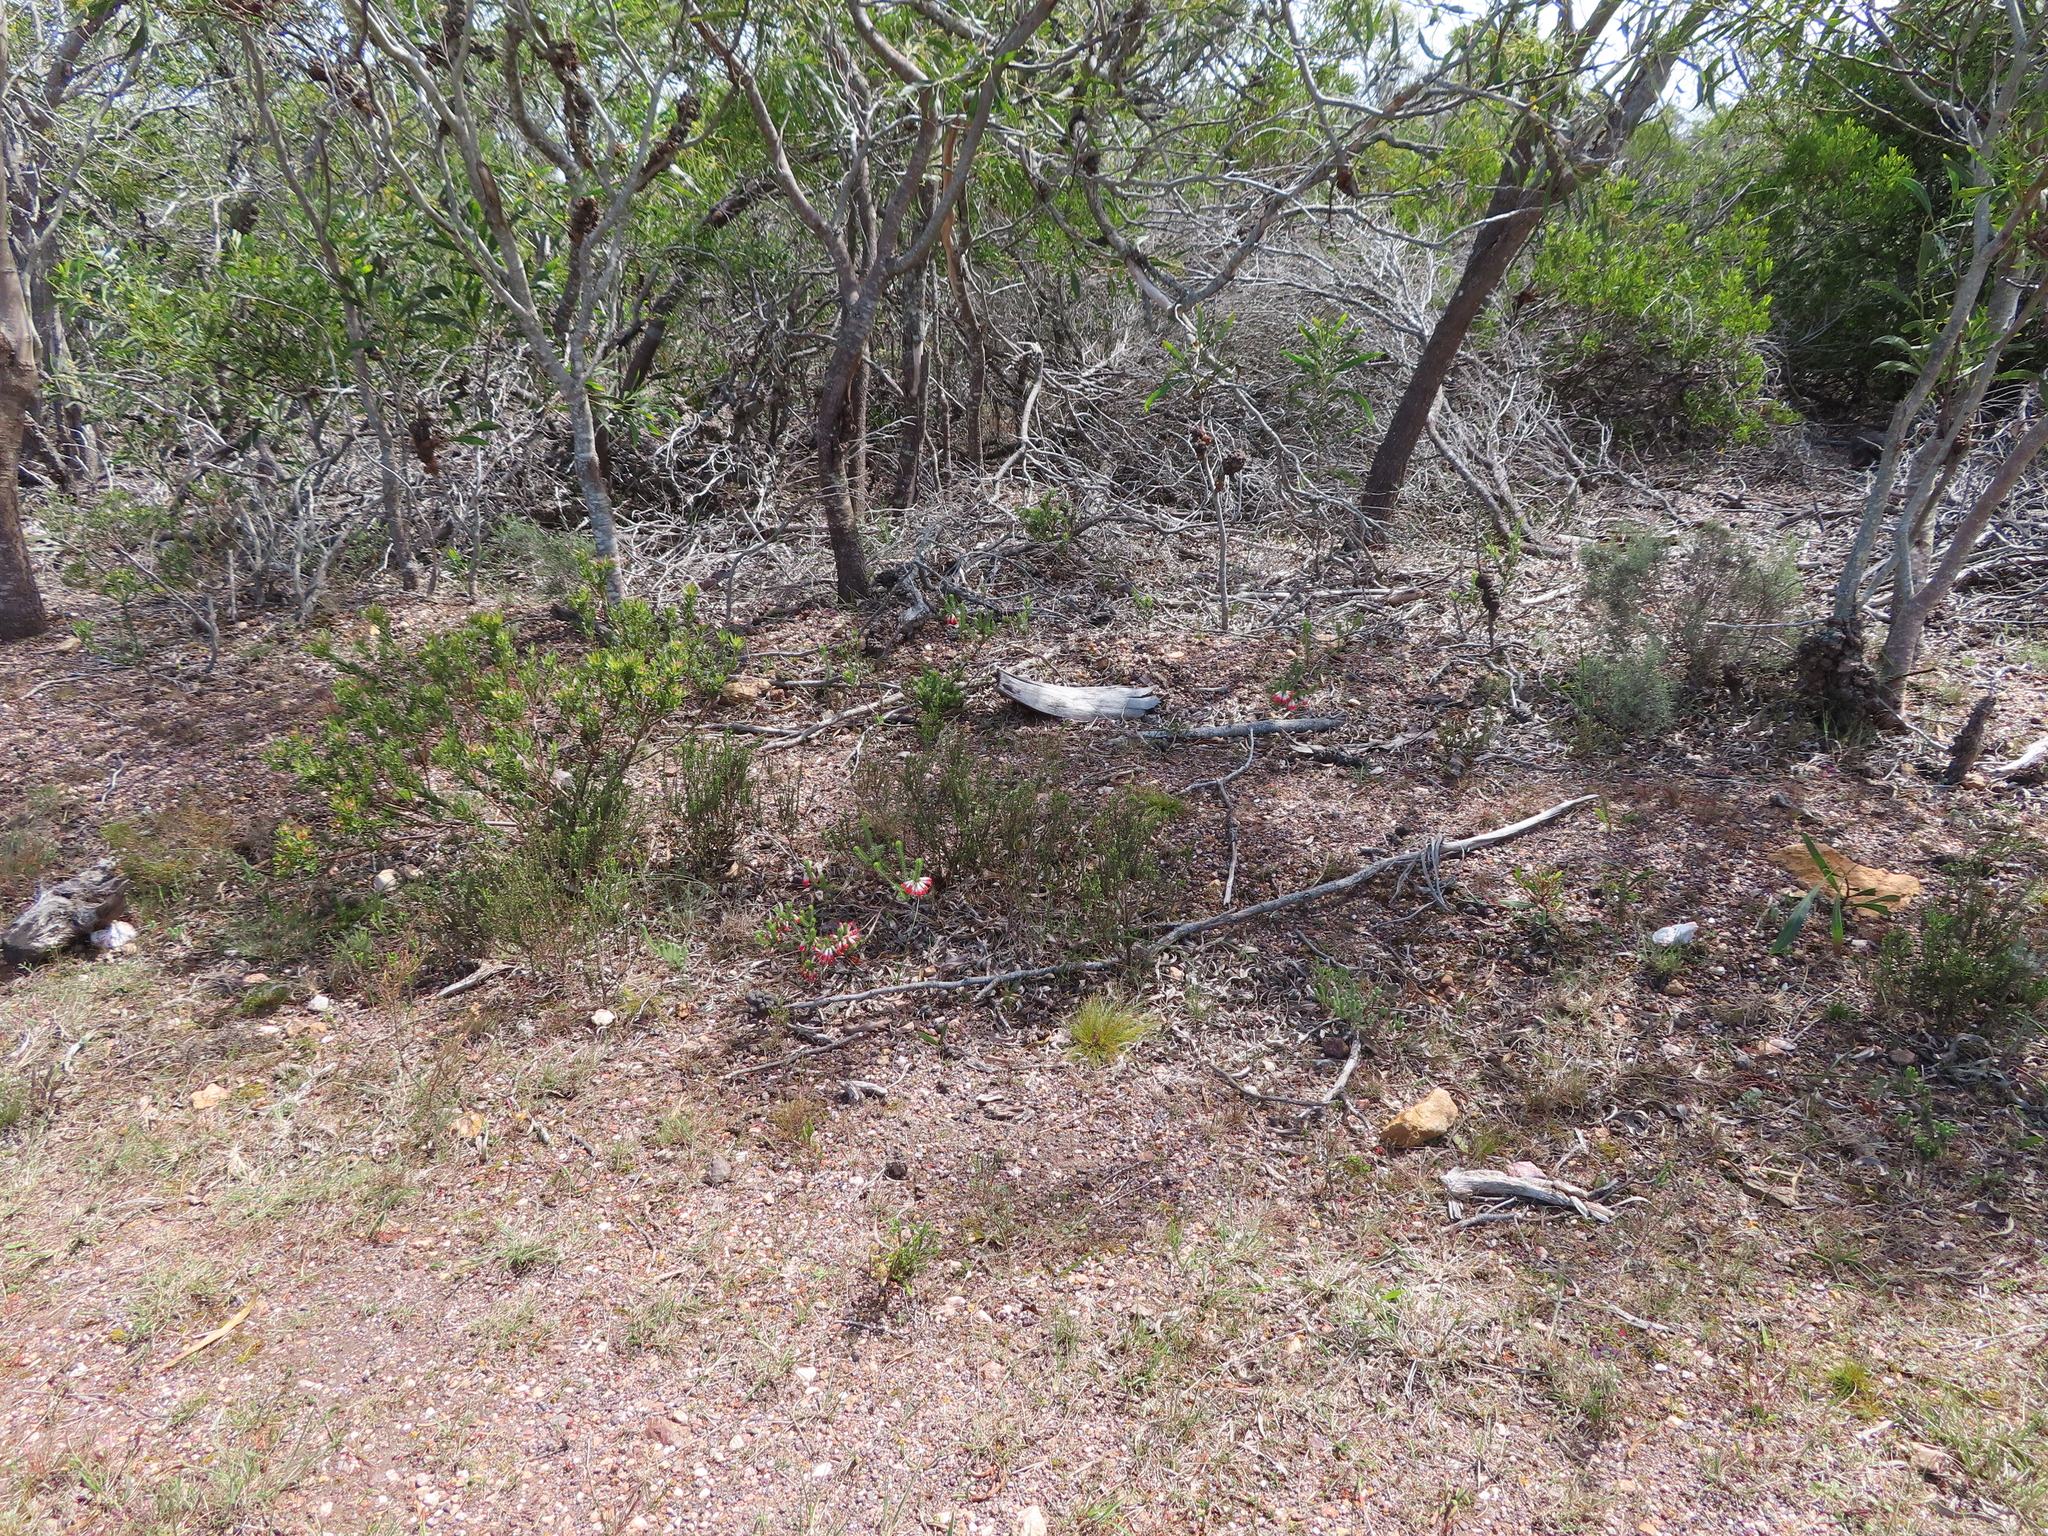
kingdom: Plantae
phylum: Tracheophyta
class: Magnoliopsida
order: Ericales
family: Ericaceae
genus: Erica
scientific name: Erica regia
